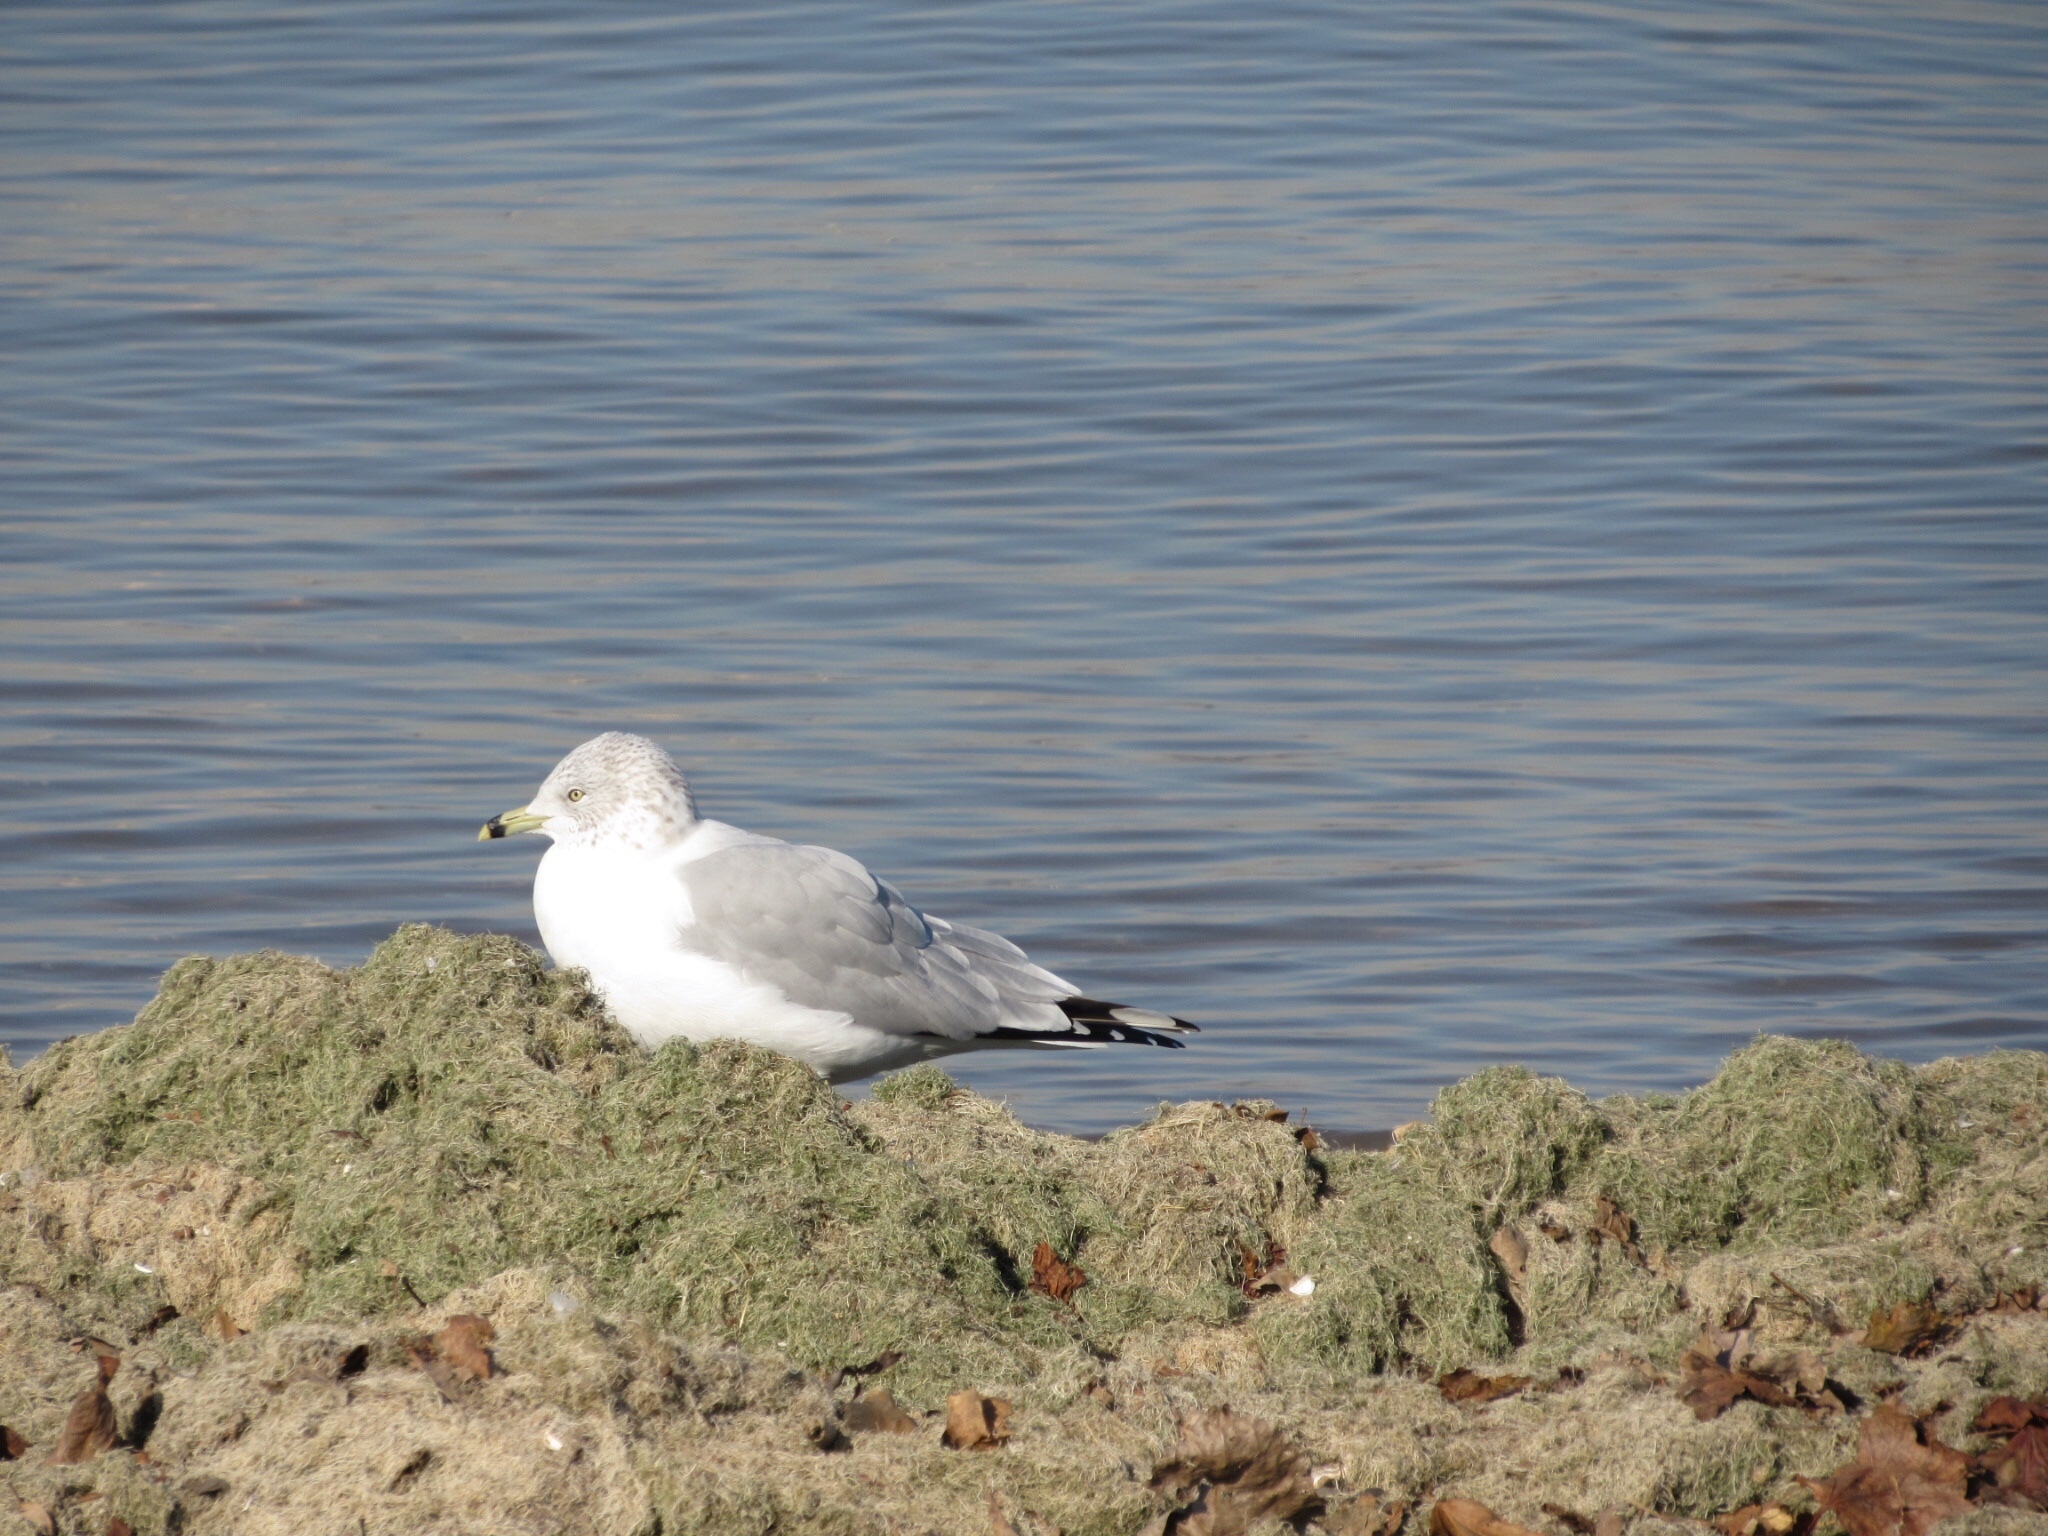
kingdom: Animalia
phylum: Chordata
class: Aves
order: Charadriiformes
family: Laridae
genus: Larus
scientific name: Larus delawarensis
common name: Ring-billed gull
